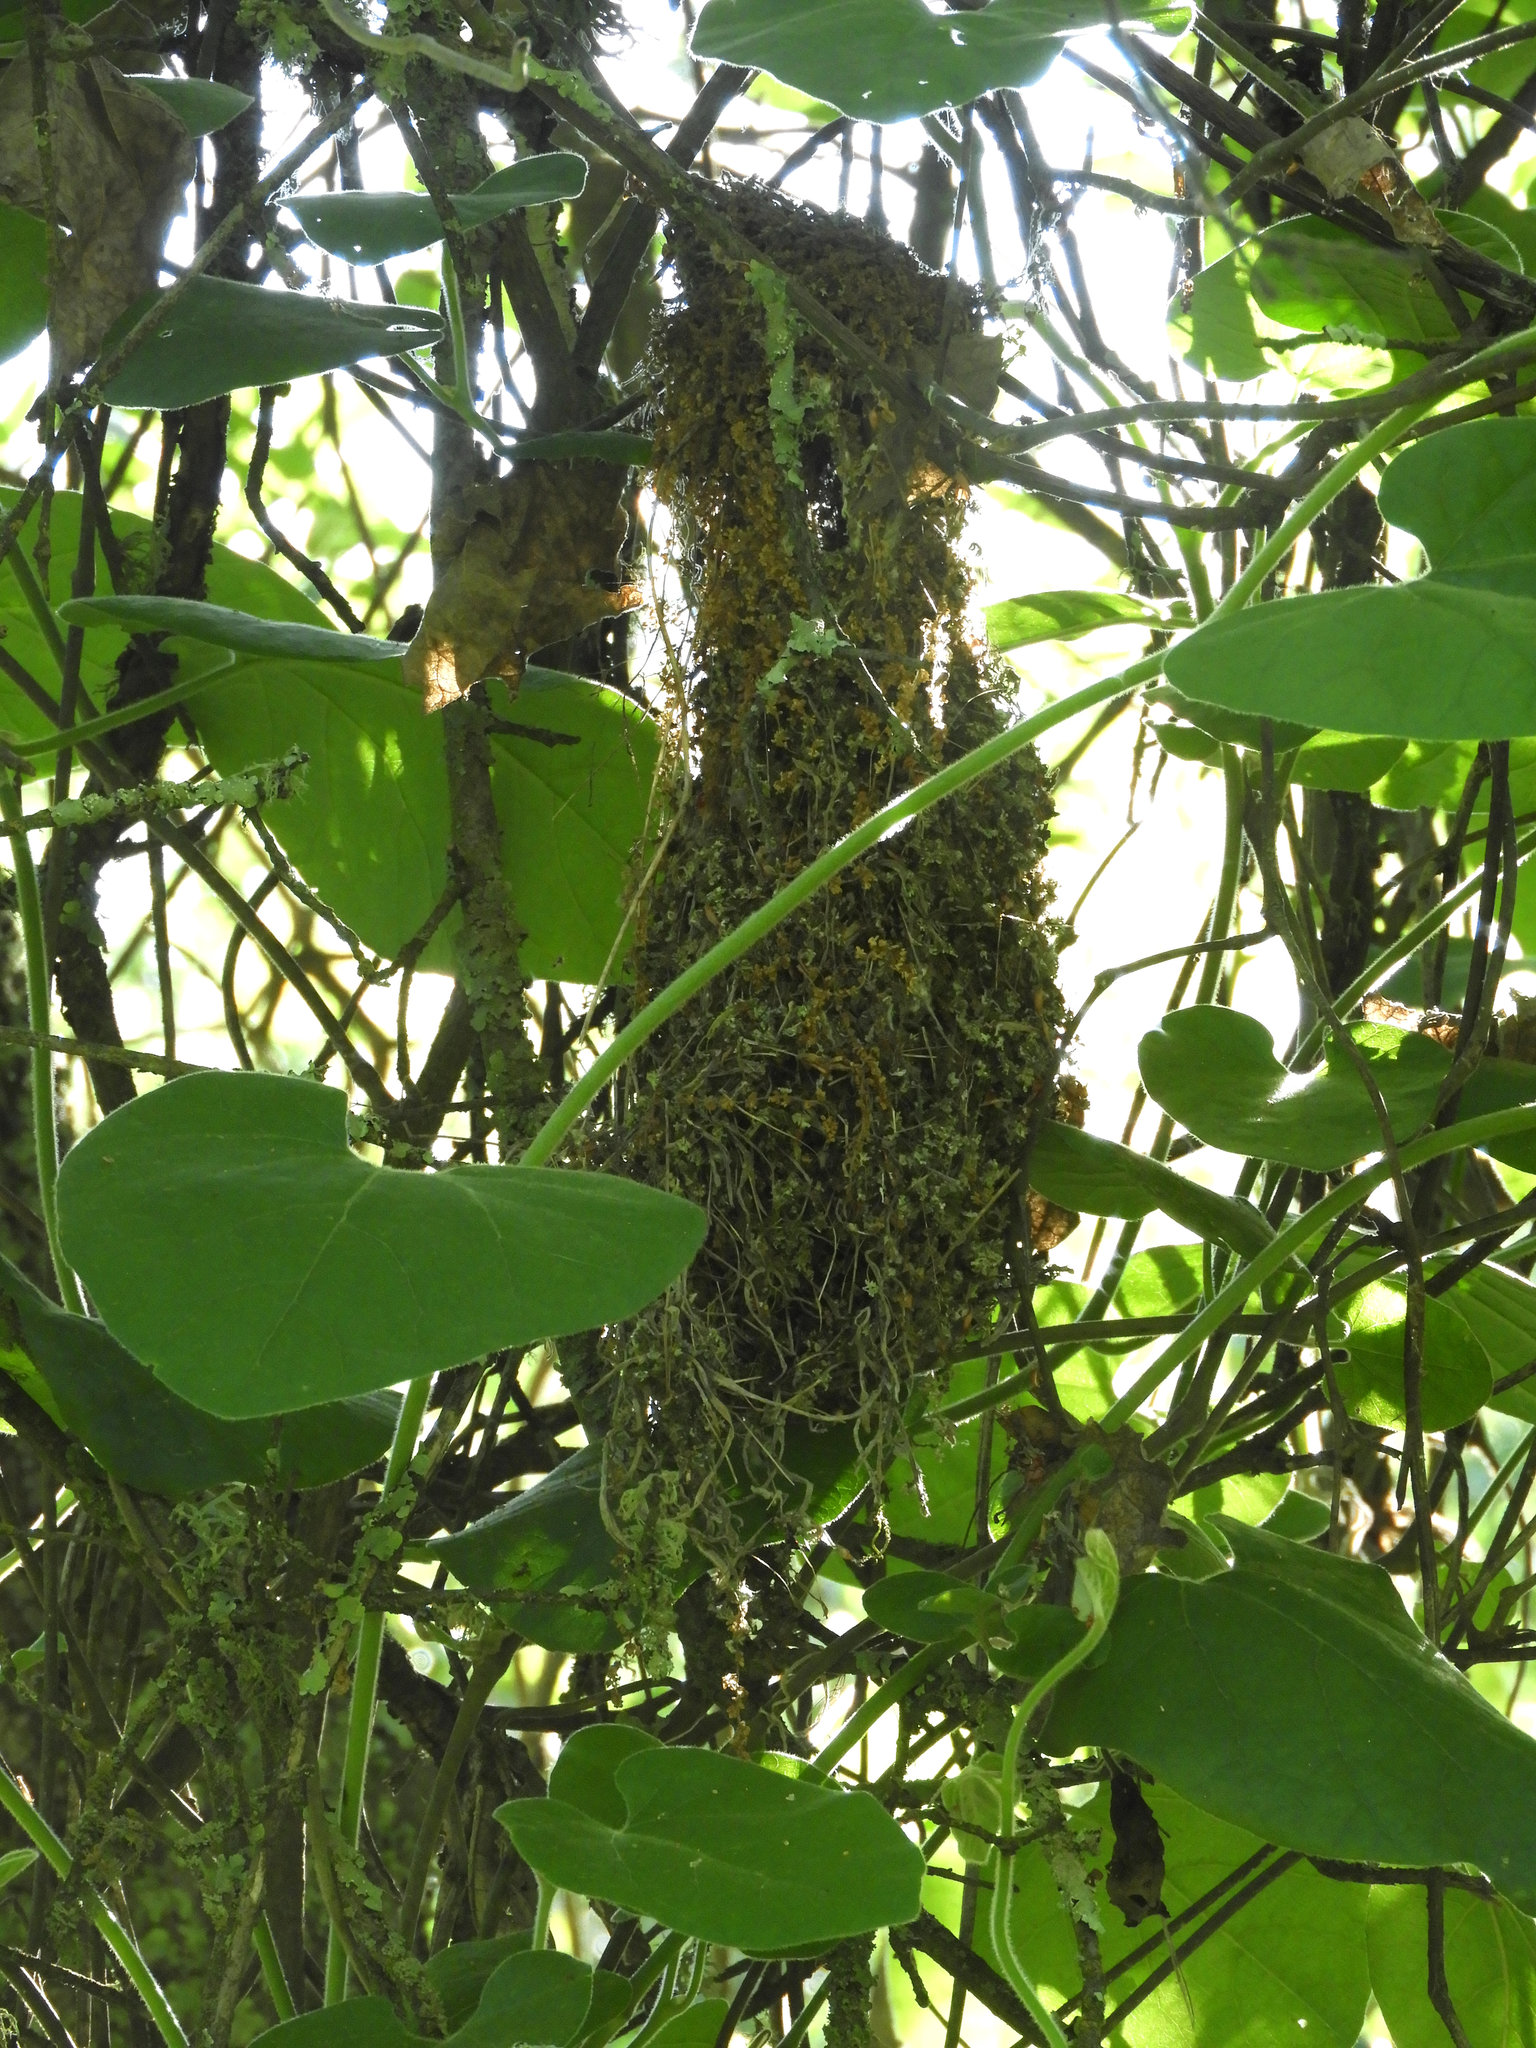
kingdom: Animalia
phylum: Chordata
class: Aves
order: Passeriformes
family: Aegithalidae
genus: Psaltriparus
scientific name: Psaltriparus minimus
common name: American bushtit
